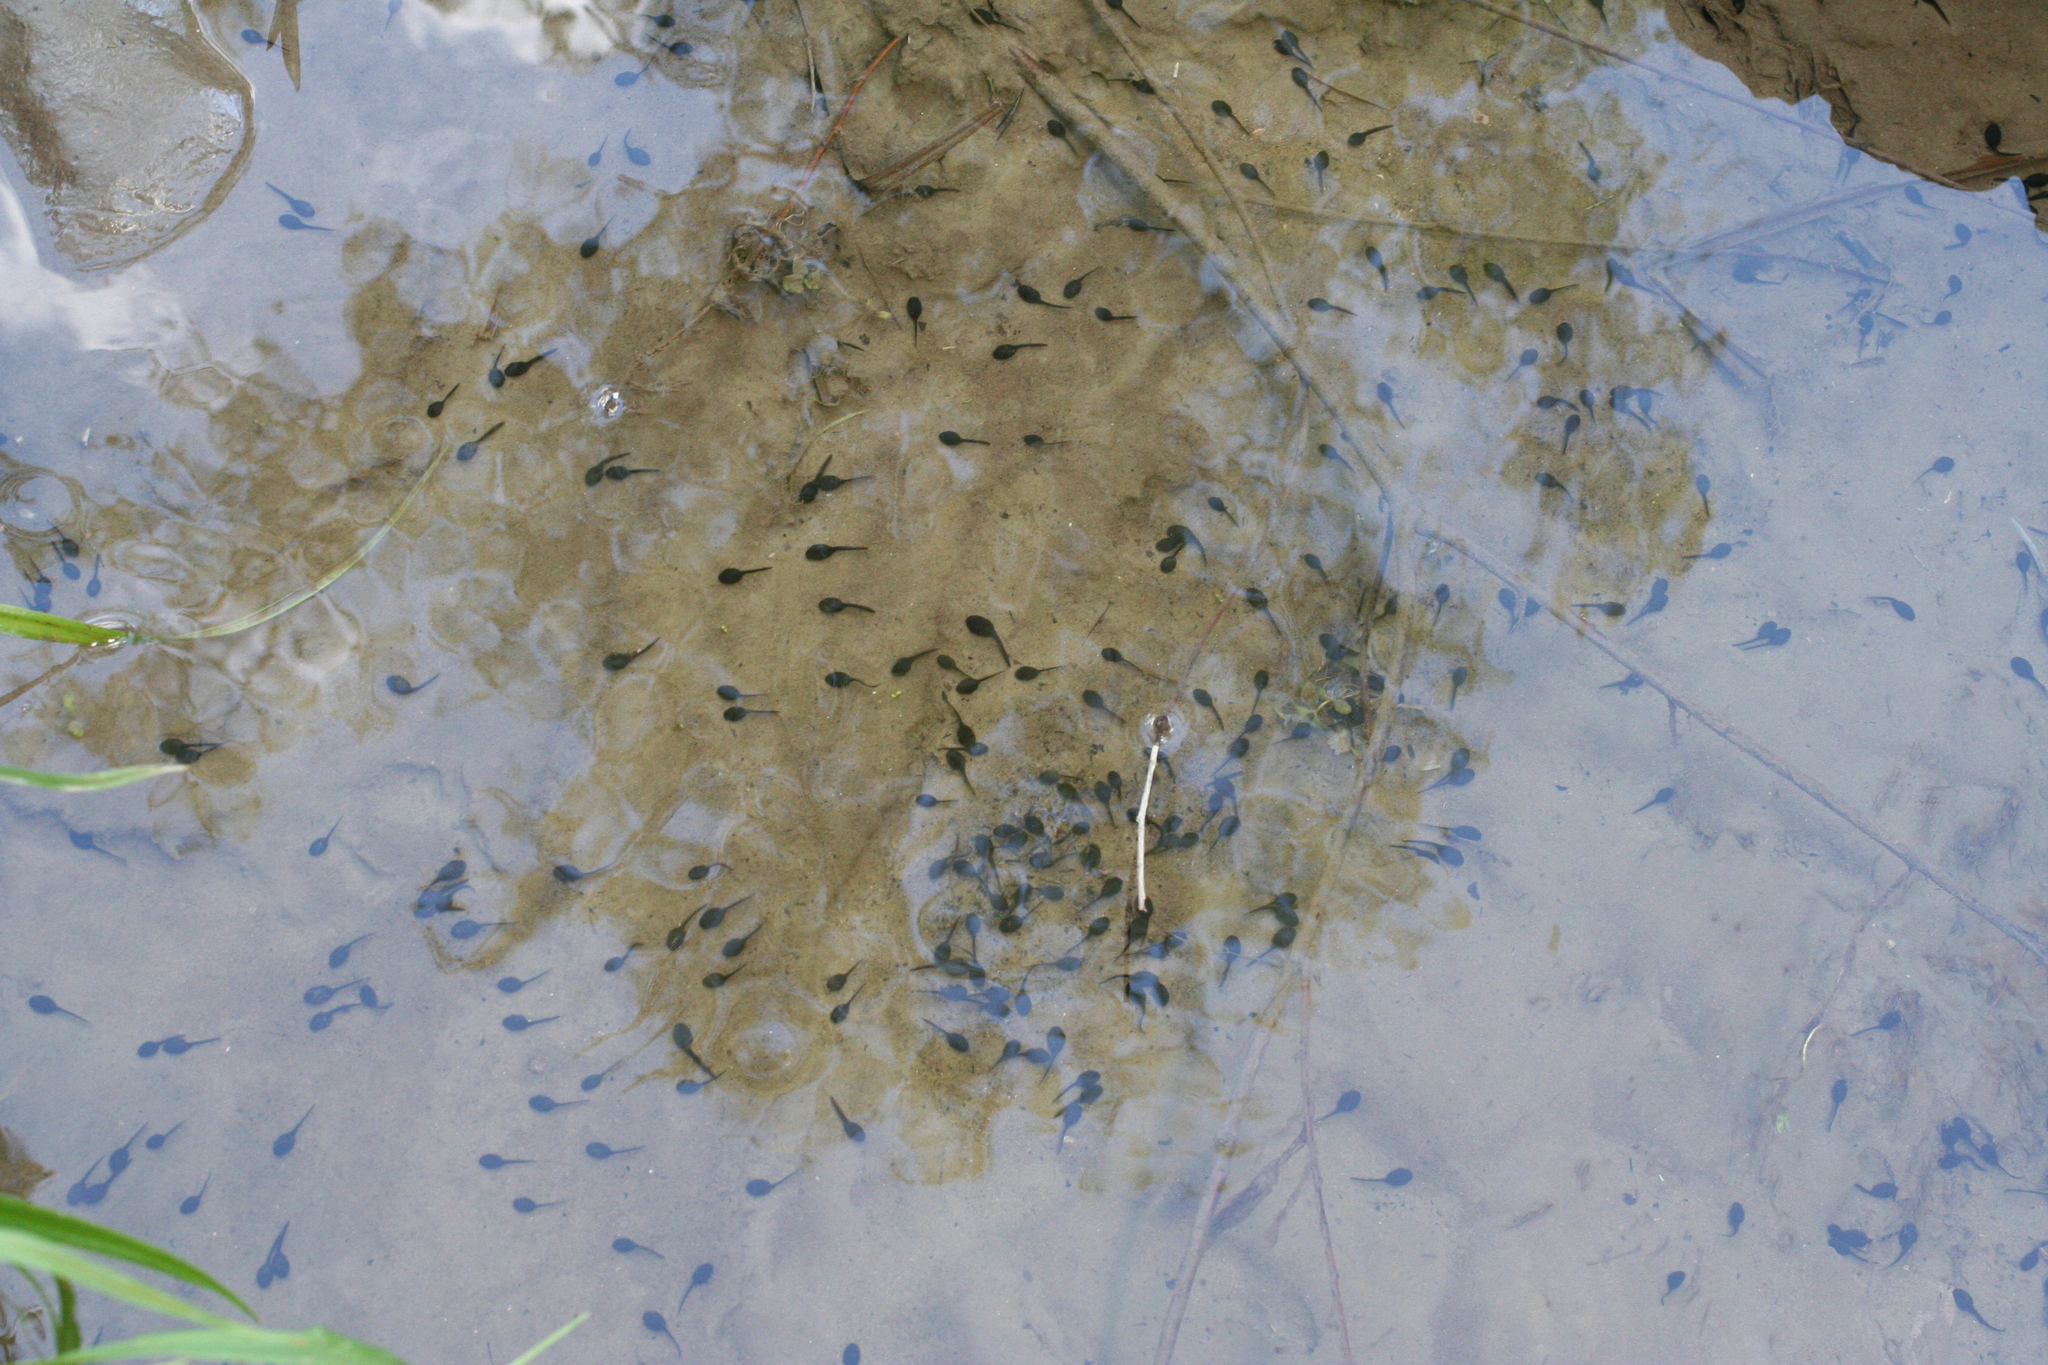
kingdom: Animalia
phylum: Chordata
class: Amphibia
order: Anura
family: Bufonidae
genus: Bufo
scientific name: Bufo bufo
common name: Common toad
